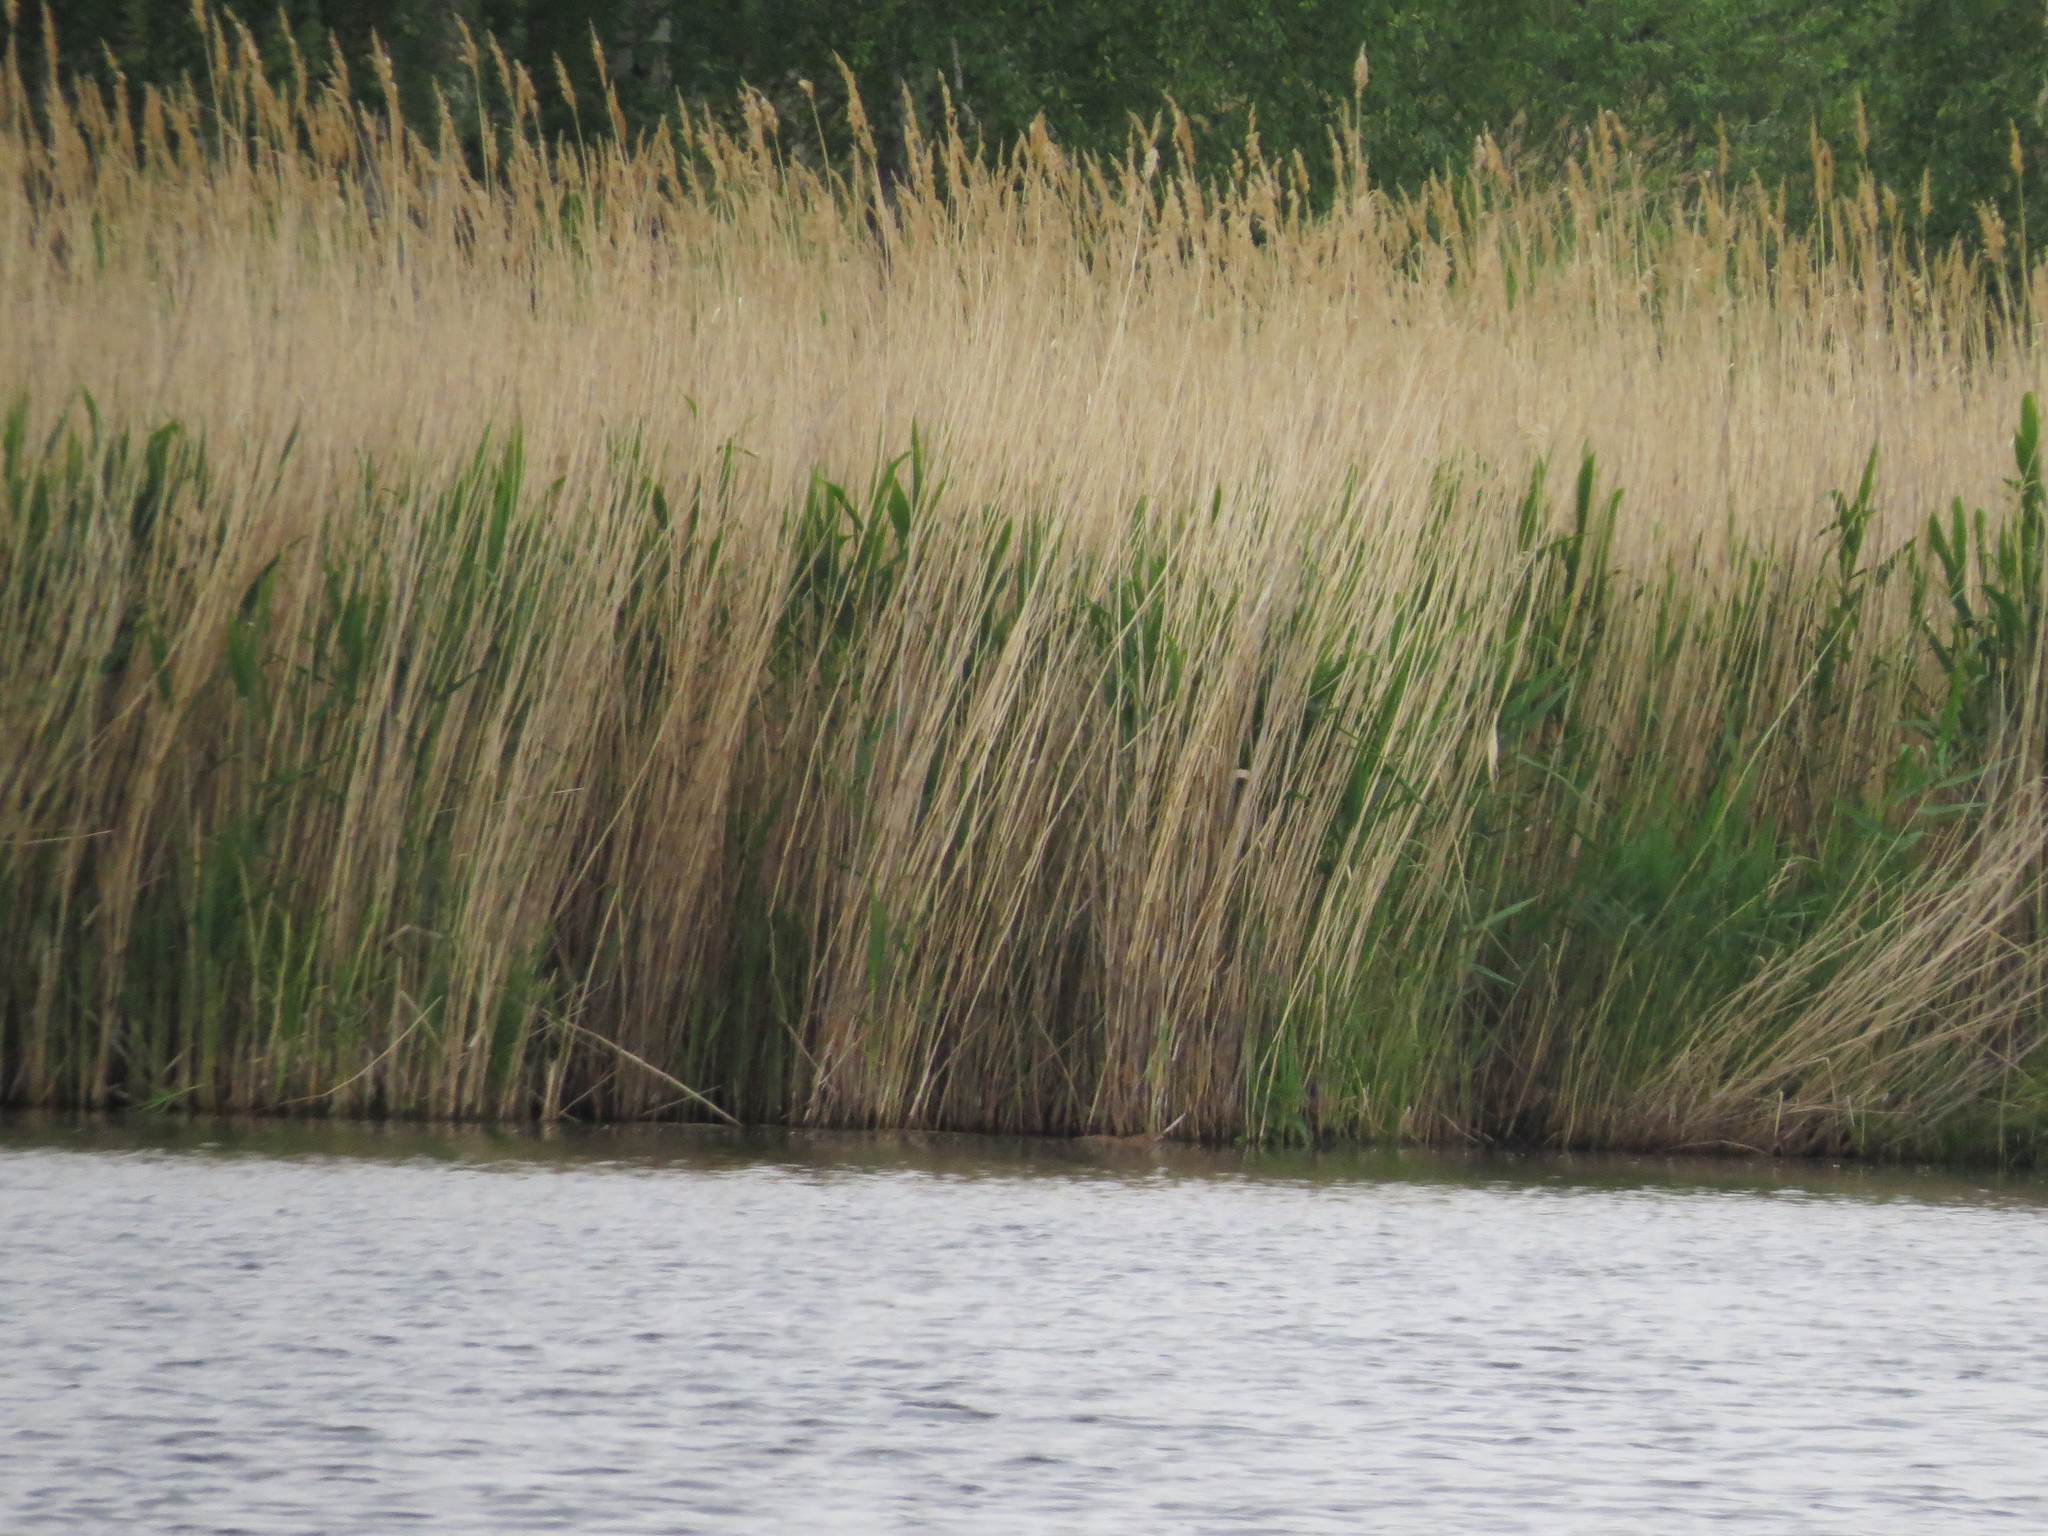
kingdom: Animalia
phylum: Chordata
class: Mammalia
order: Rodentia
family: Cricetidae
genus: Ondatra
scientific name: Ondatra zibethicus
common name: Muskrat
